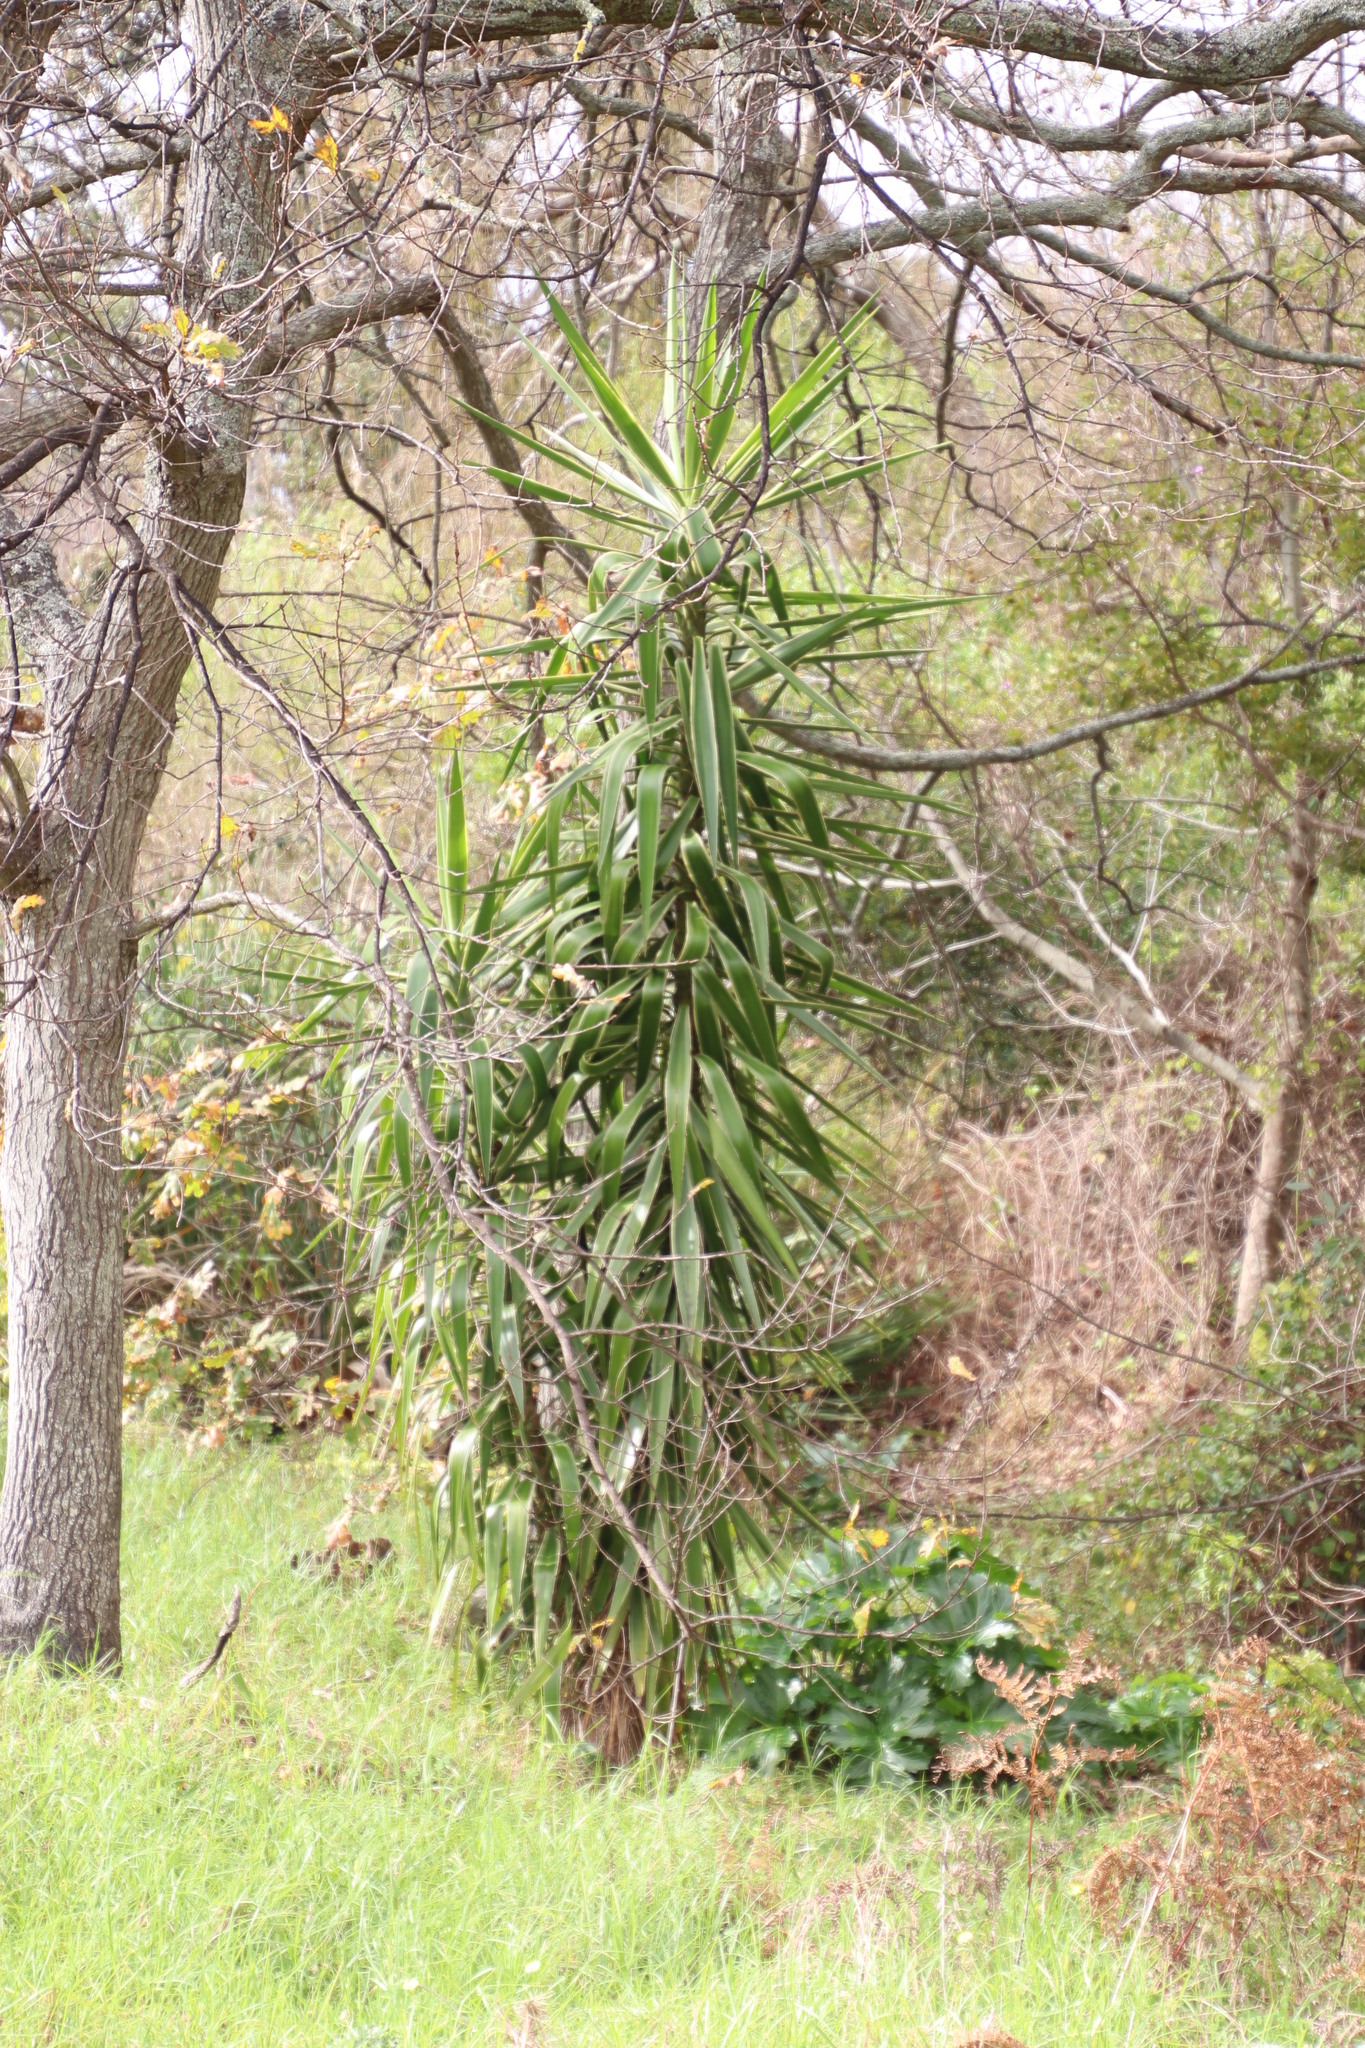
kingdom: Plantae
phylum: Tracheophyta
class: Liliopsida
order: Asparagales
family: Asparagaceae
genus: Yucca
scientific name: Yucca gigantea
